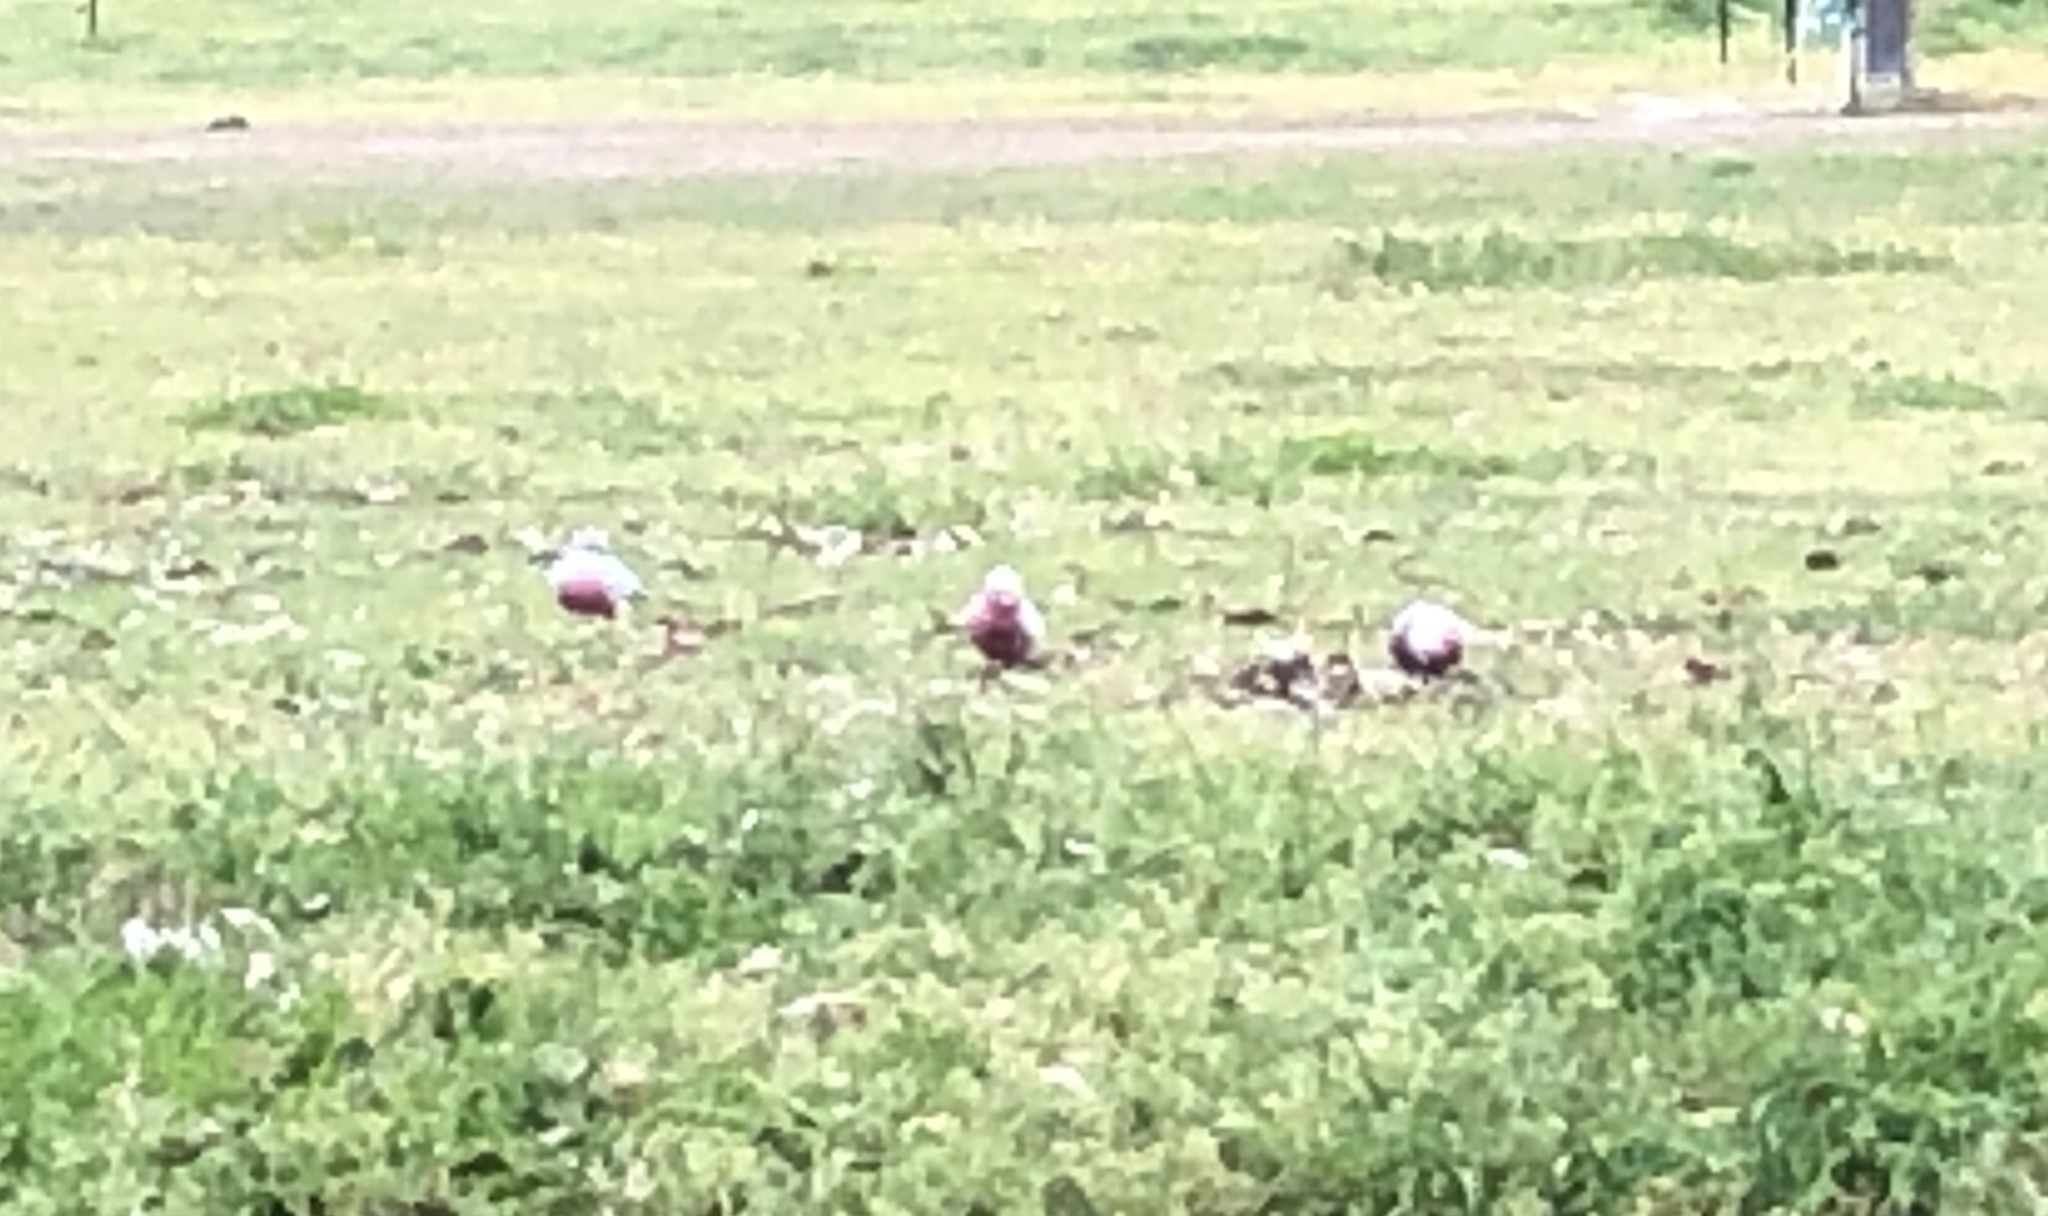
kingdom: Animalia
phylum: Chordata
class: Aves
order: Psittaciformes
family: Psittacidae
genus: Eolophus
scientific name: Eolophus roseicapilla
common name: Galah
